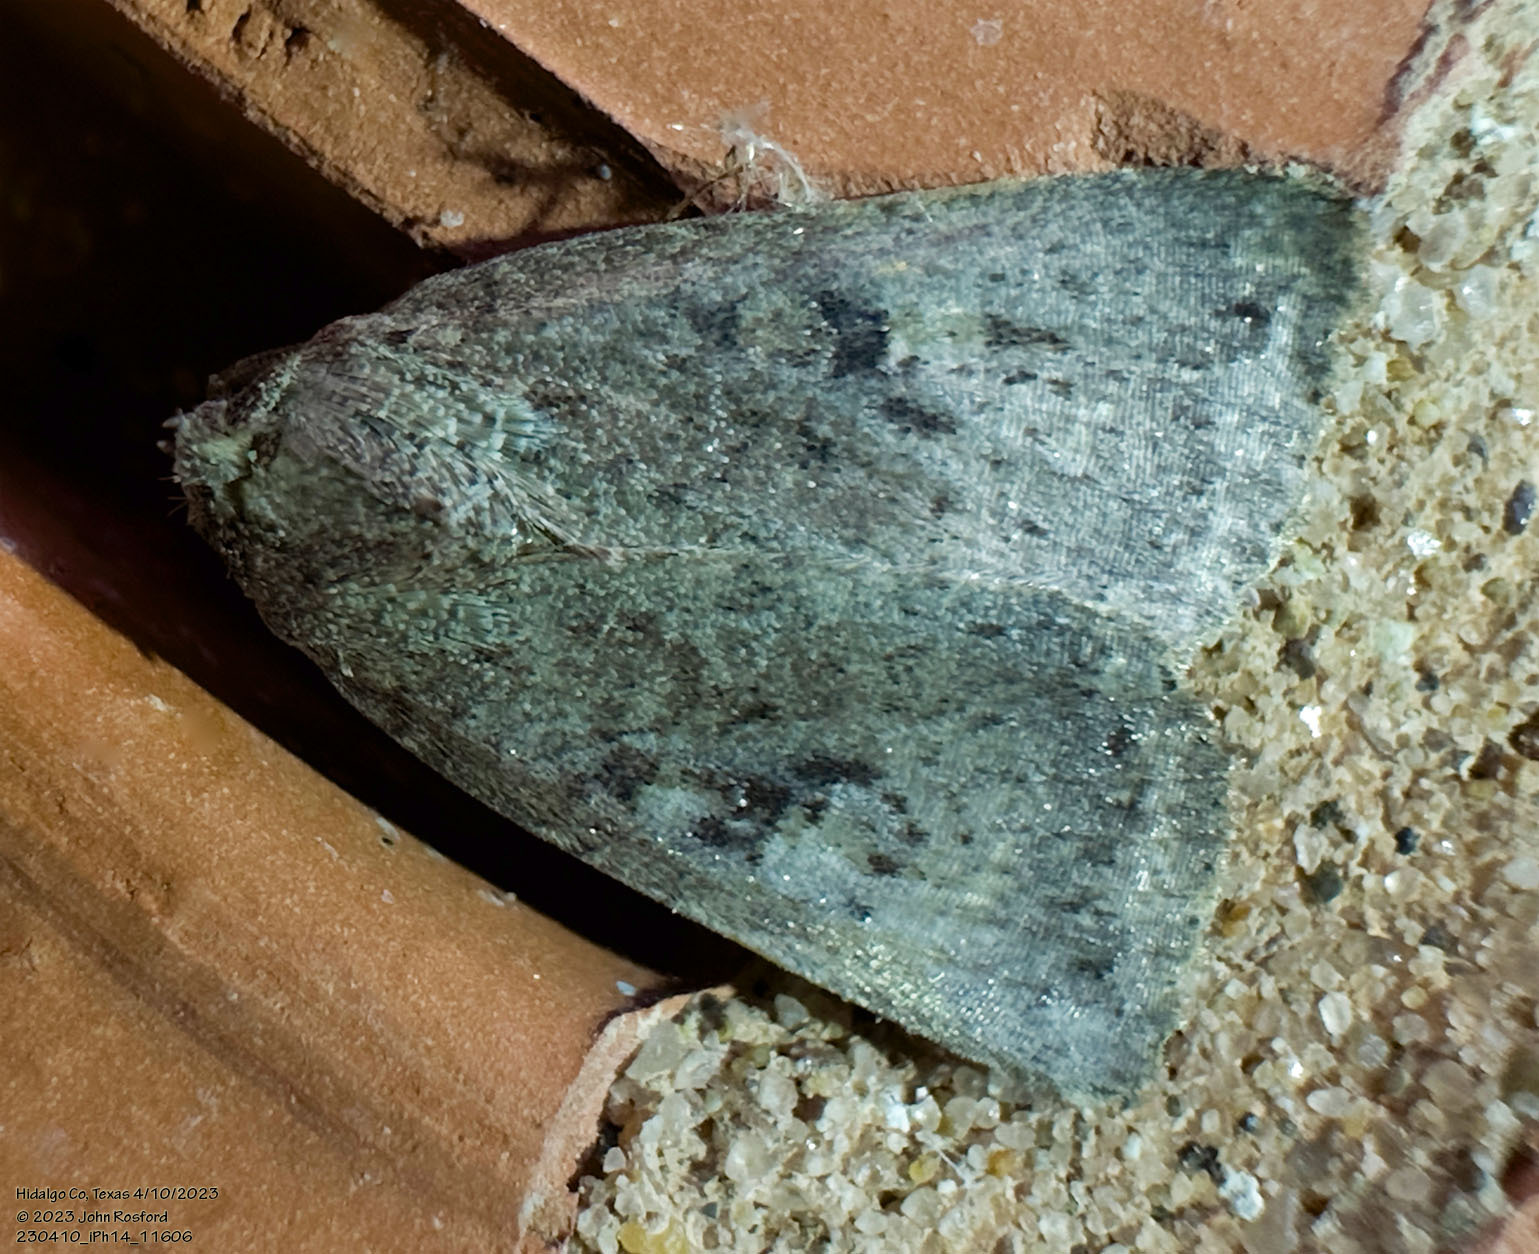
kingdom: Animalia
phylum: Arthropoda
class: Insecta
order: Lepidoptera
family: Noctuidae
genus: Condica
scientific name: Condica morsa
